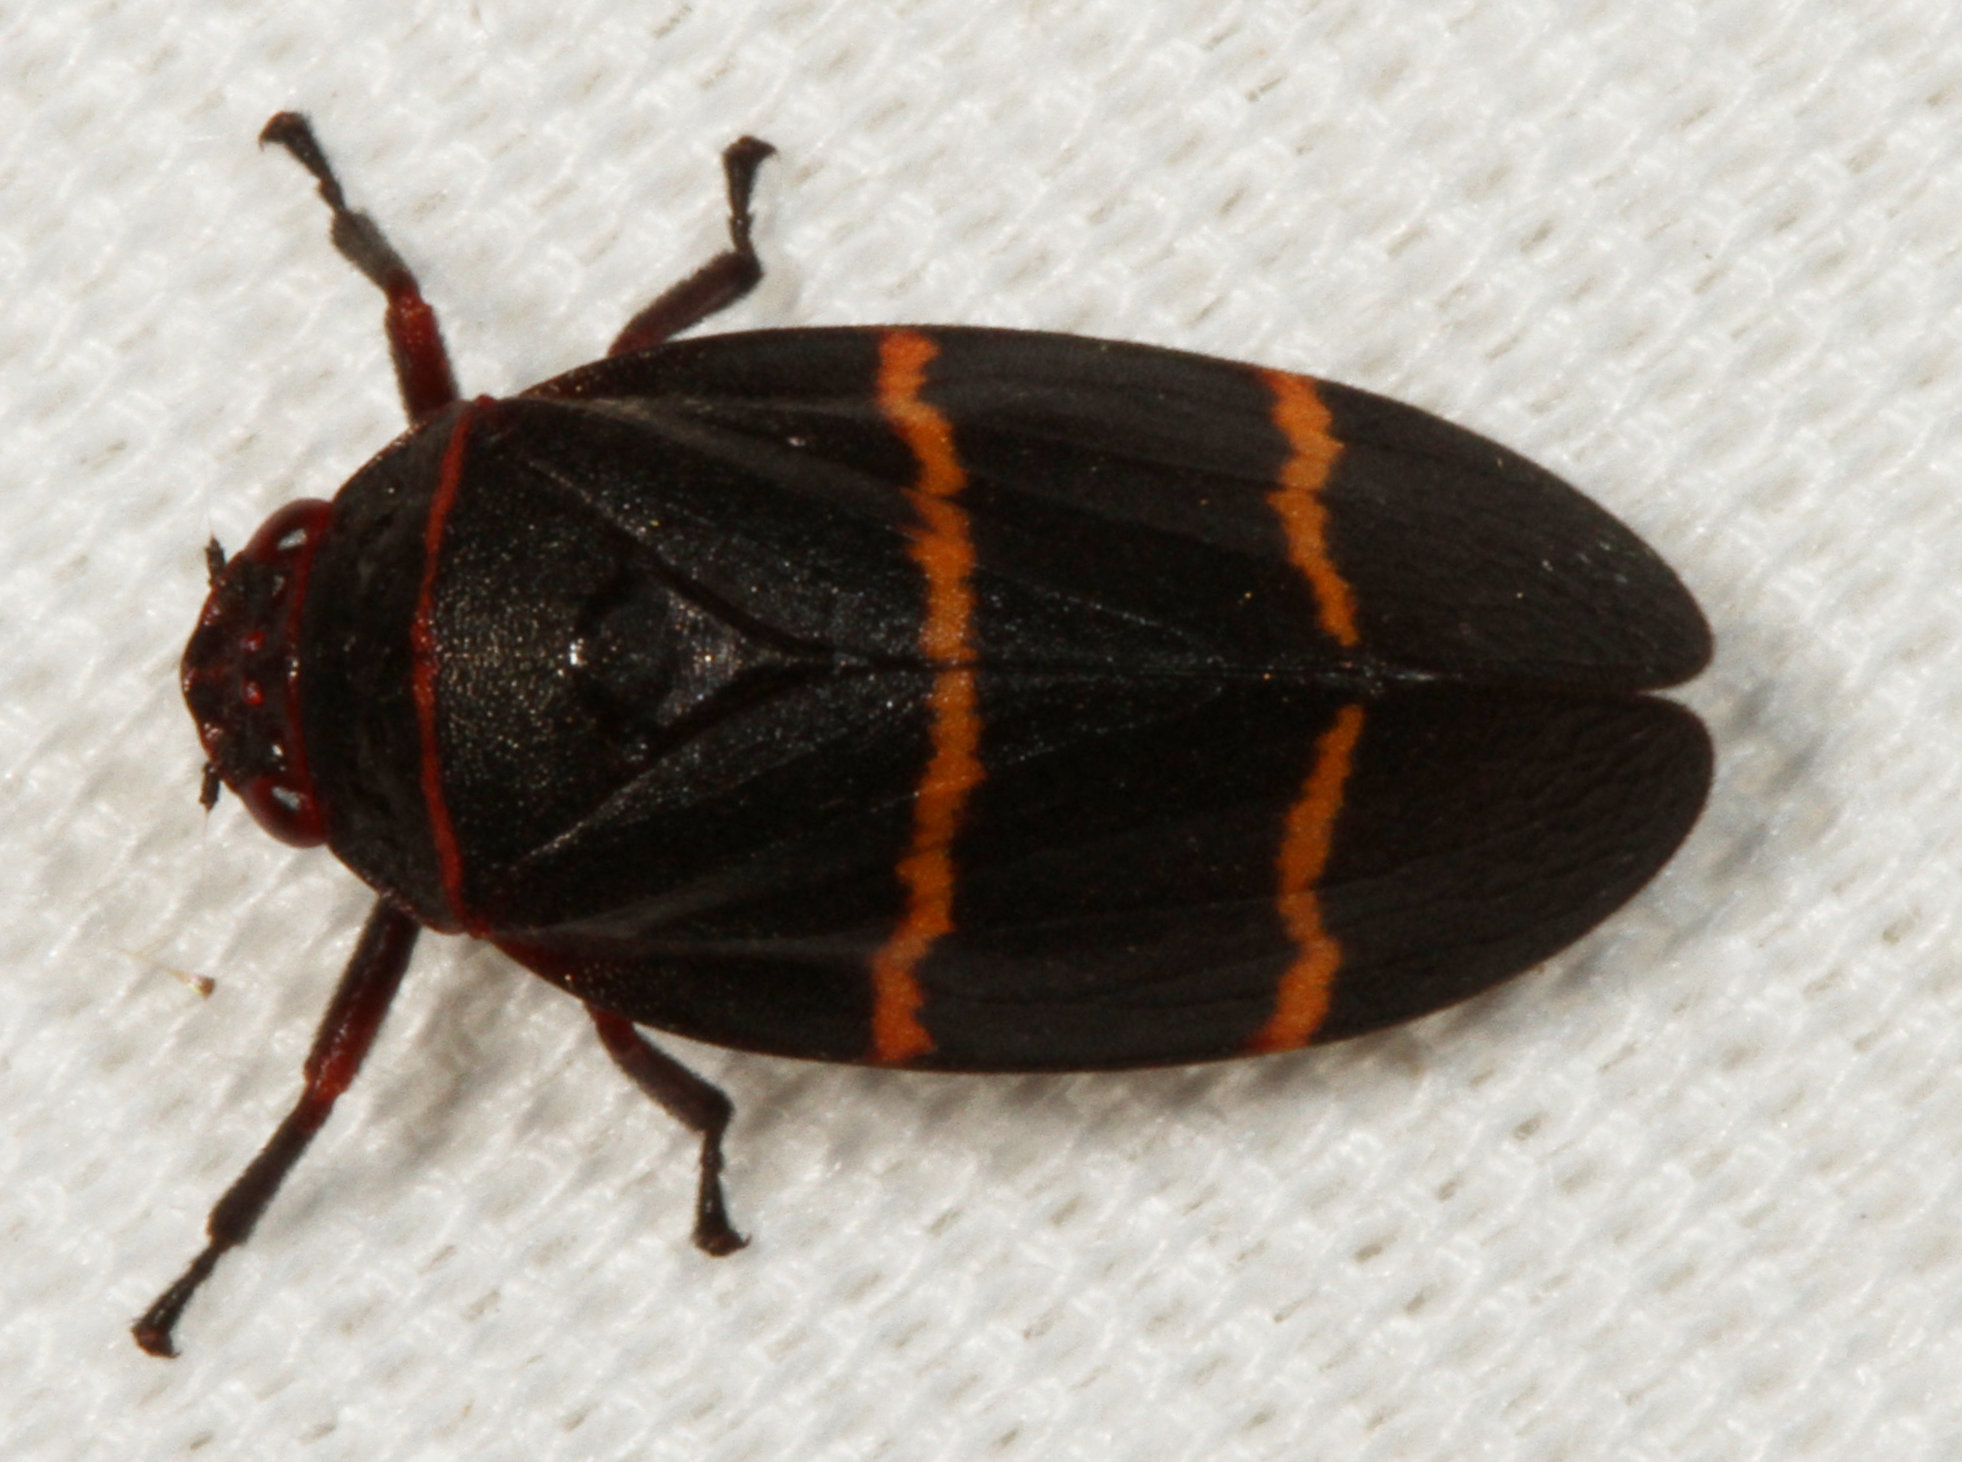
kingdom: Animalia
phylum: Arthropoda
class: Insecta
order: Hemiptera
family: Cercopidae
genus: Prosapia
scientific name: Prosapia bicincta
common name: Twolined spittlebug
